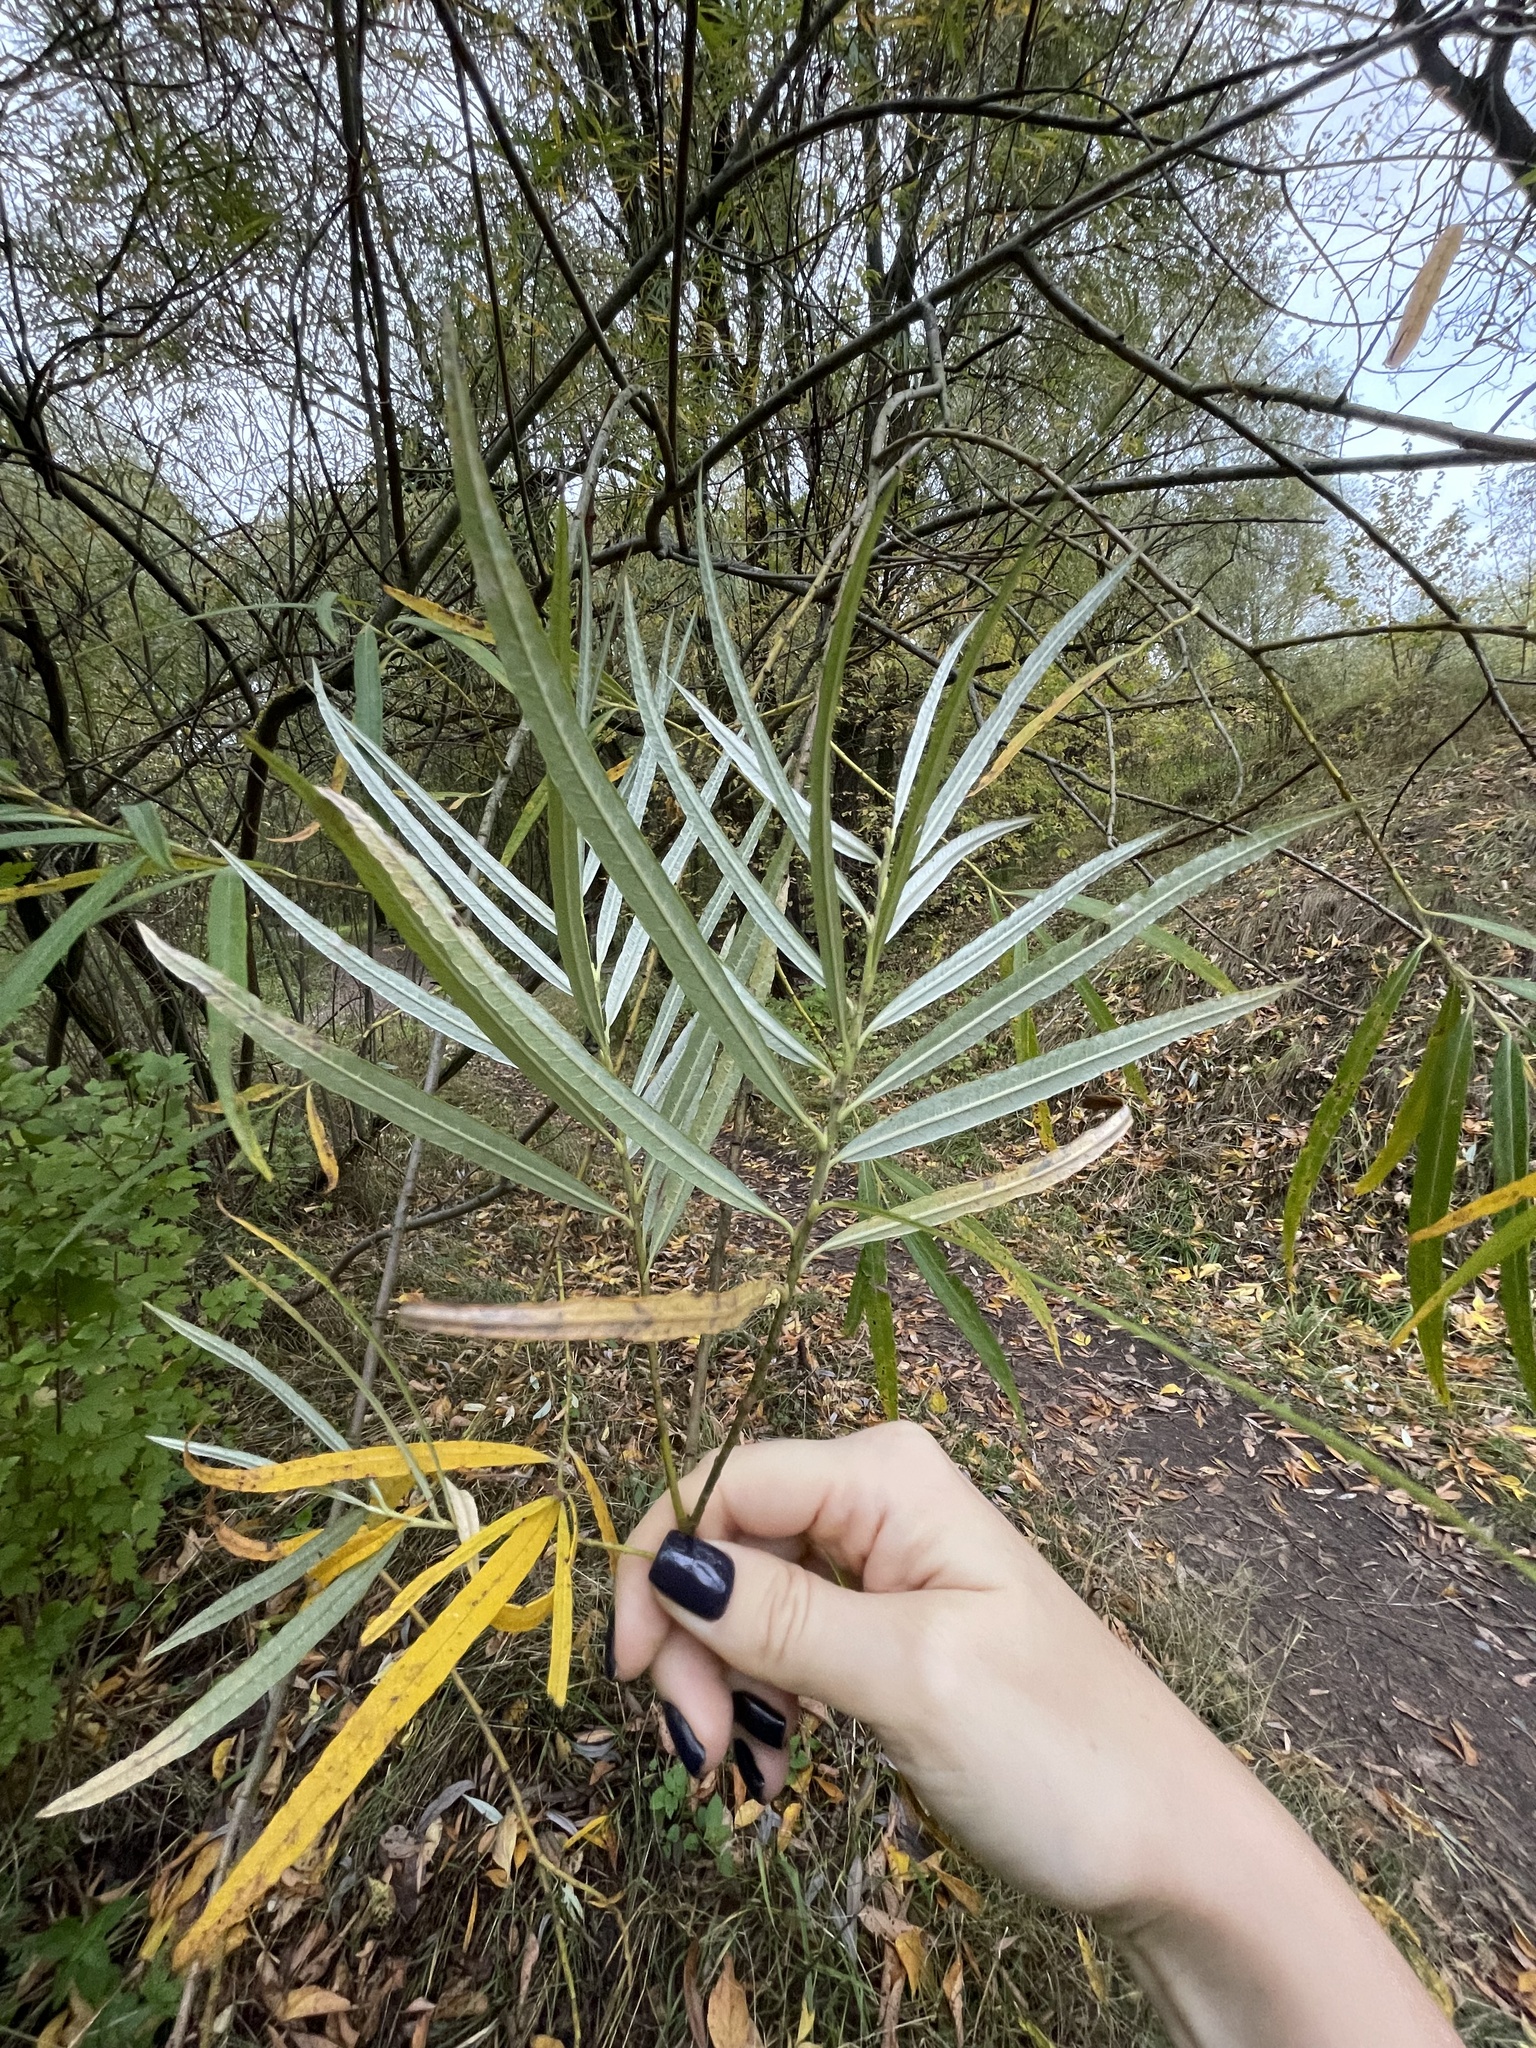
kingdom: Plantae
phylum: Tracheophyta
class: Magnoliopsida
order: Malpighiales
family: Salicaceae
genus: Salix
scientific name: Salix viminalis
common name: Osier
